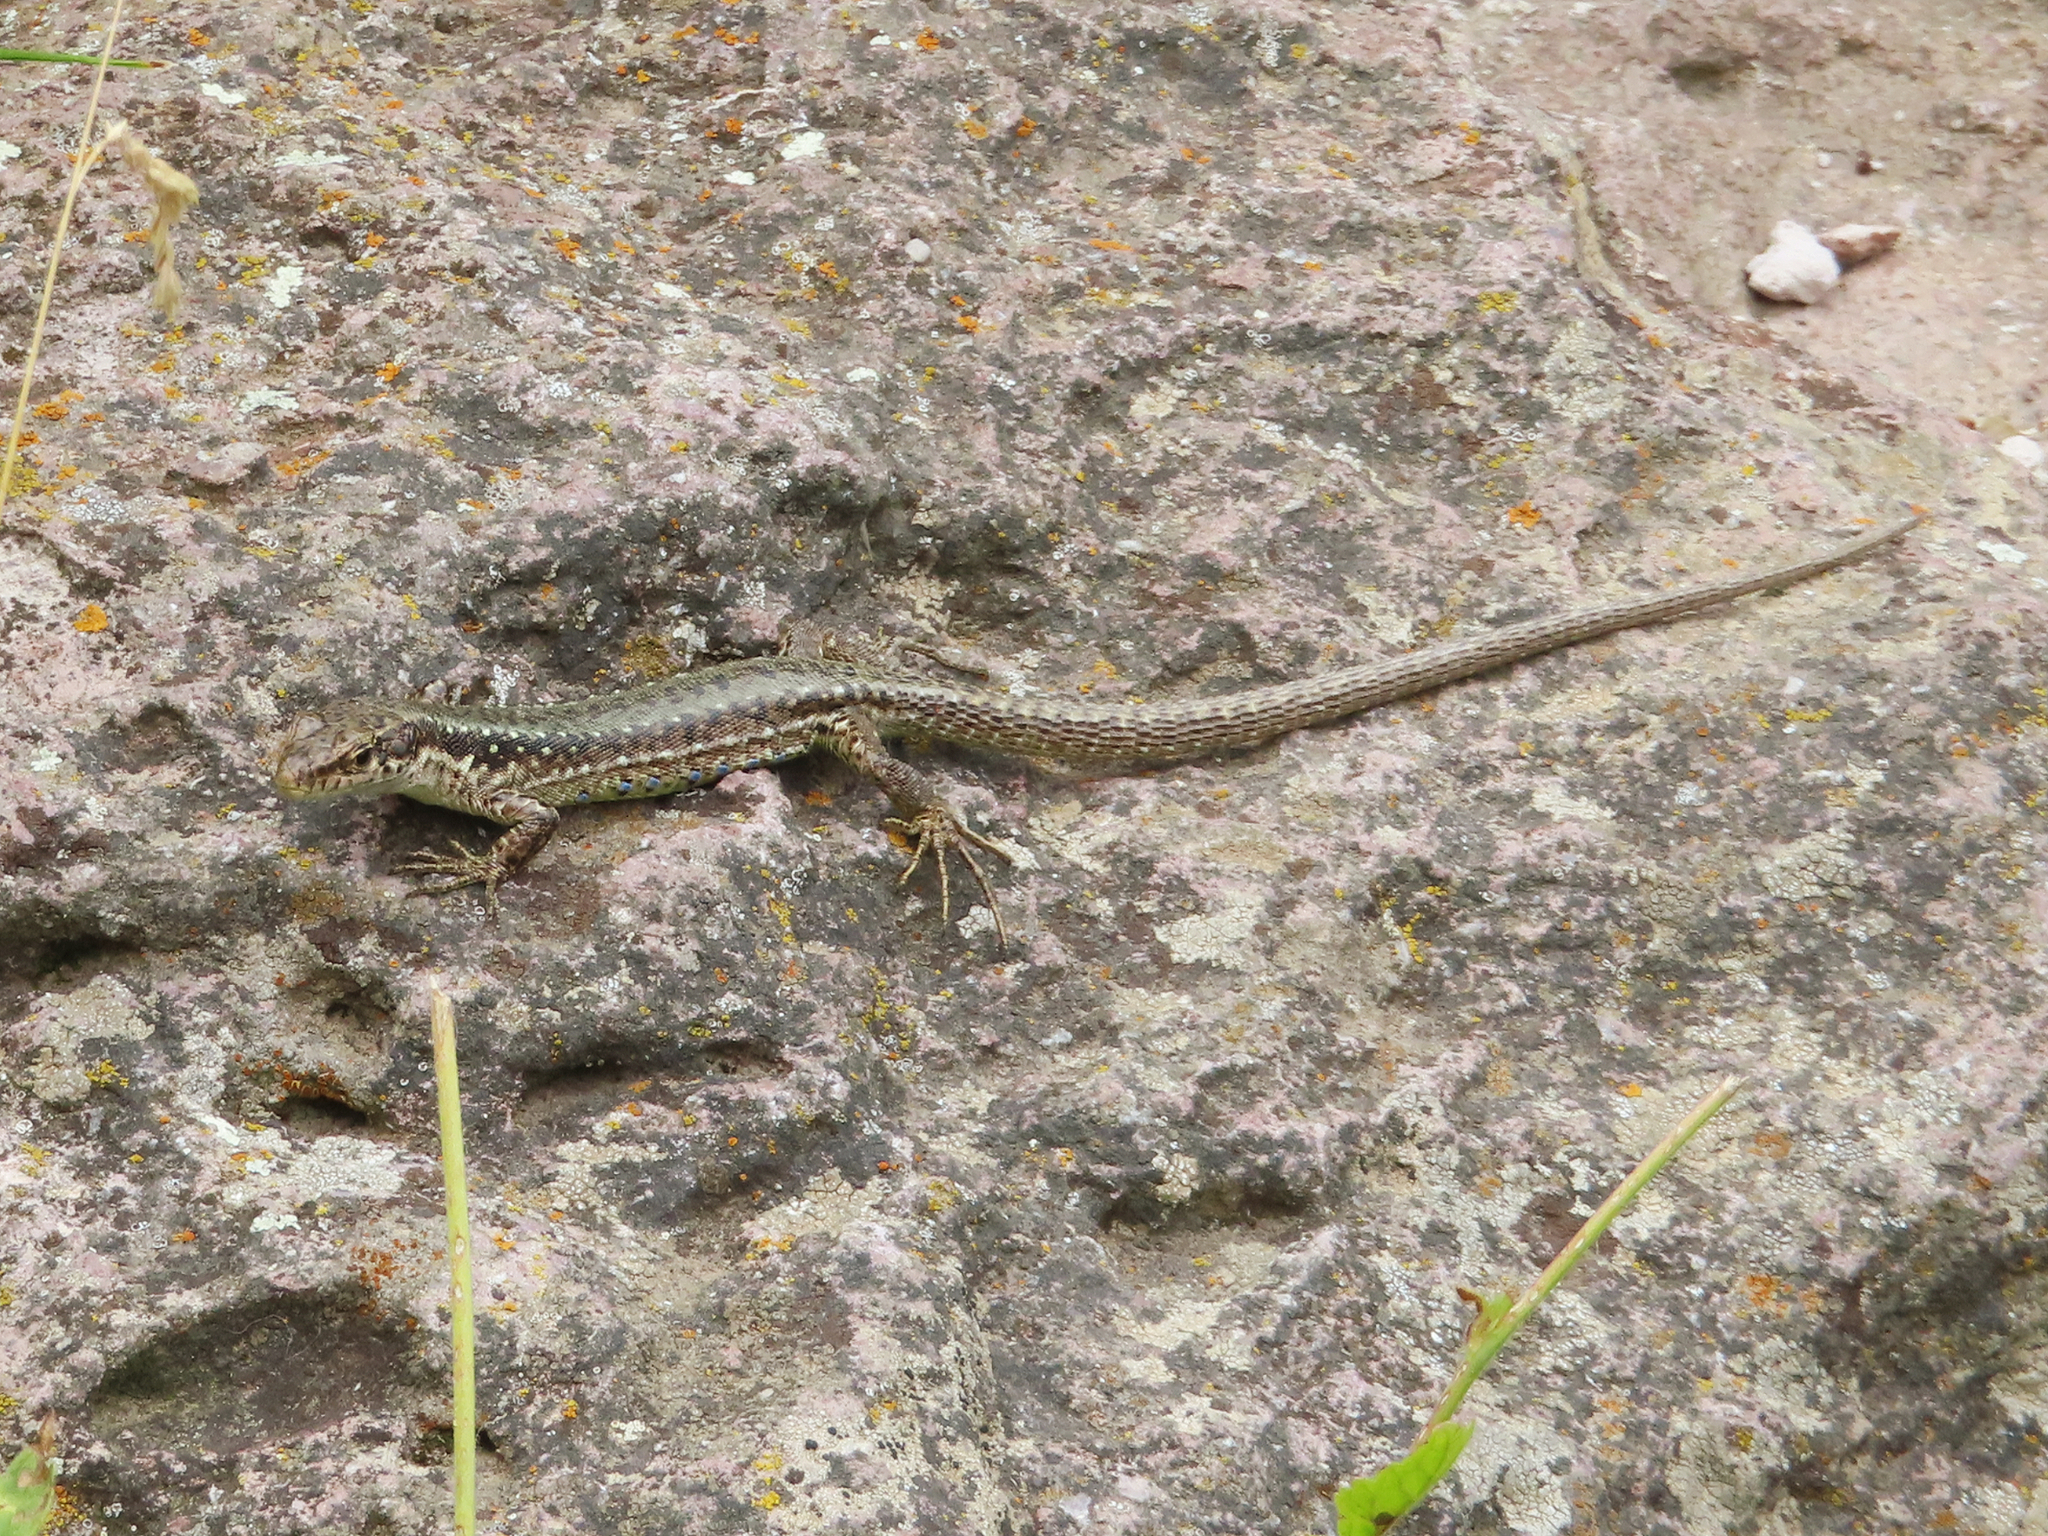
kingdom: Animalia
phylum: Chordata
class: Squamata
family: Lacertidae
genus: Darevskia
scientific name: Darevskia
